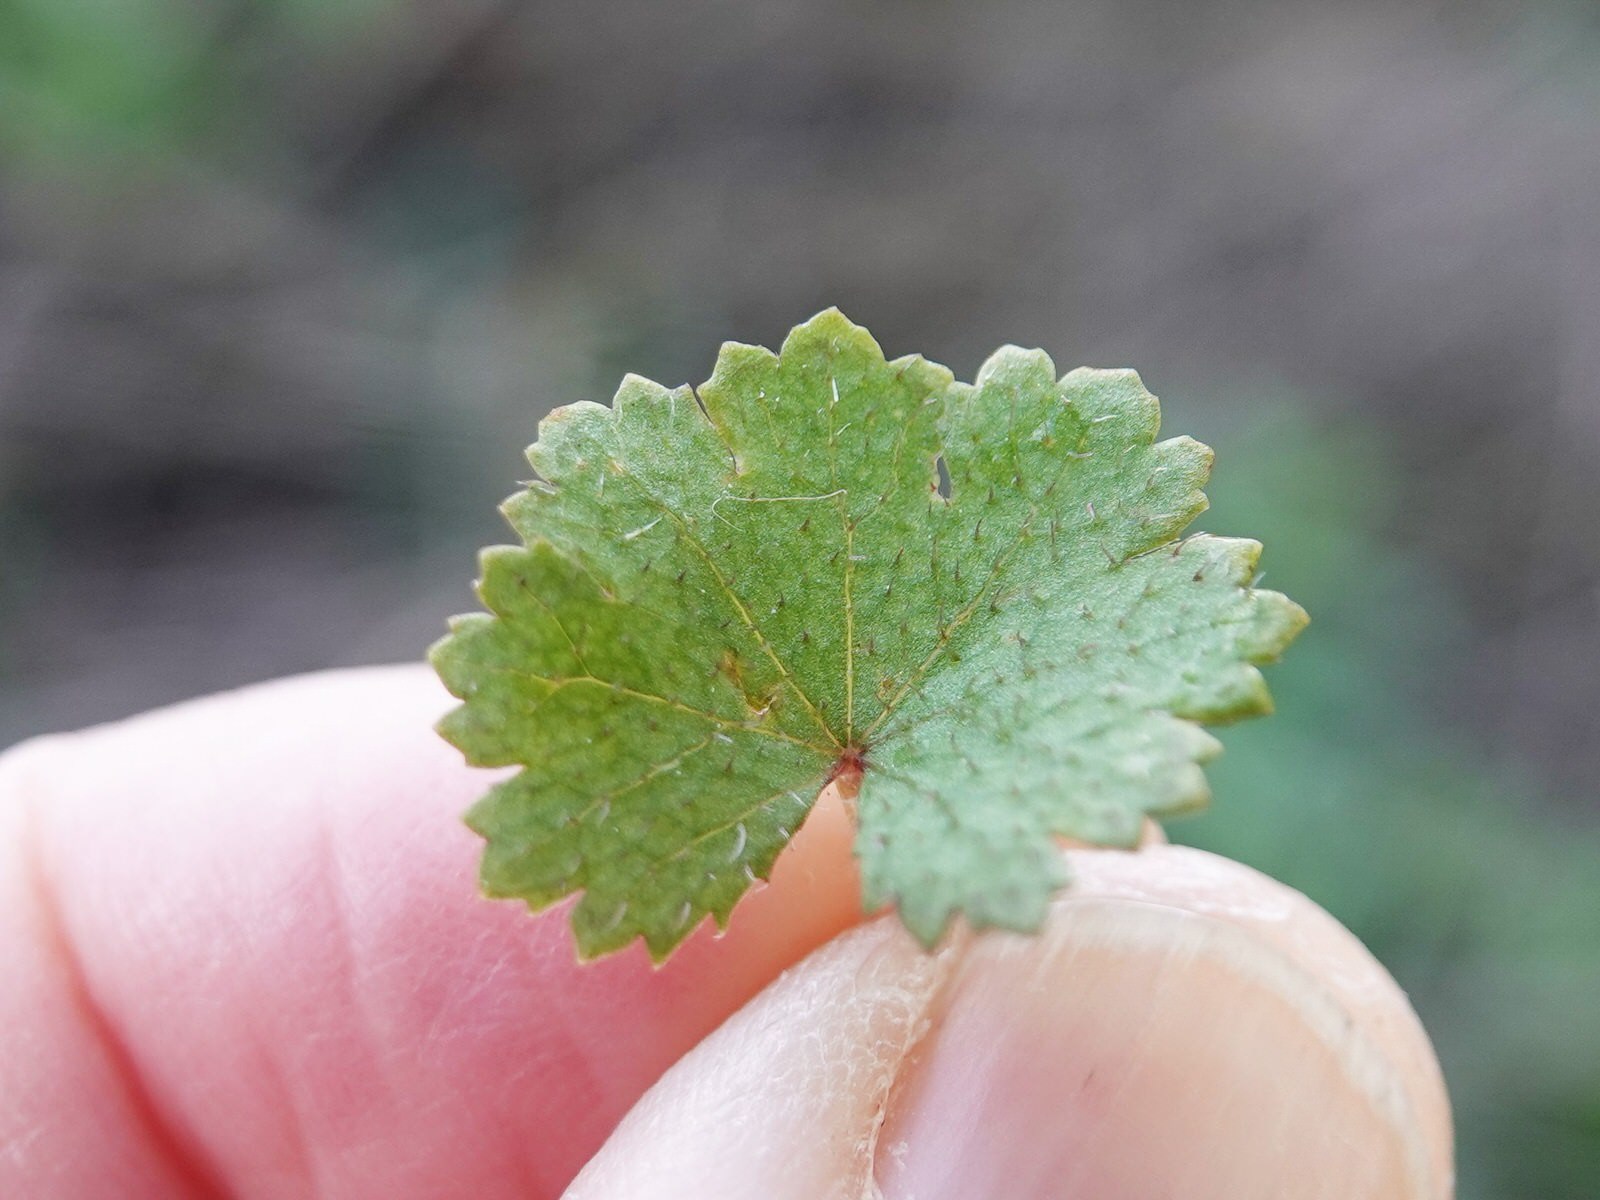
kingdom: Plantae
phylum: Tracheophyta
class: Magnoliopsida
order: Apiales
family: Araliaceae
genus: Hydrocotyle
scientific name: Hydrocotyle moschata
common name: Hairy pennywort
